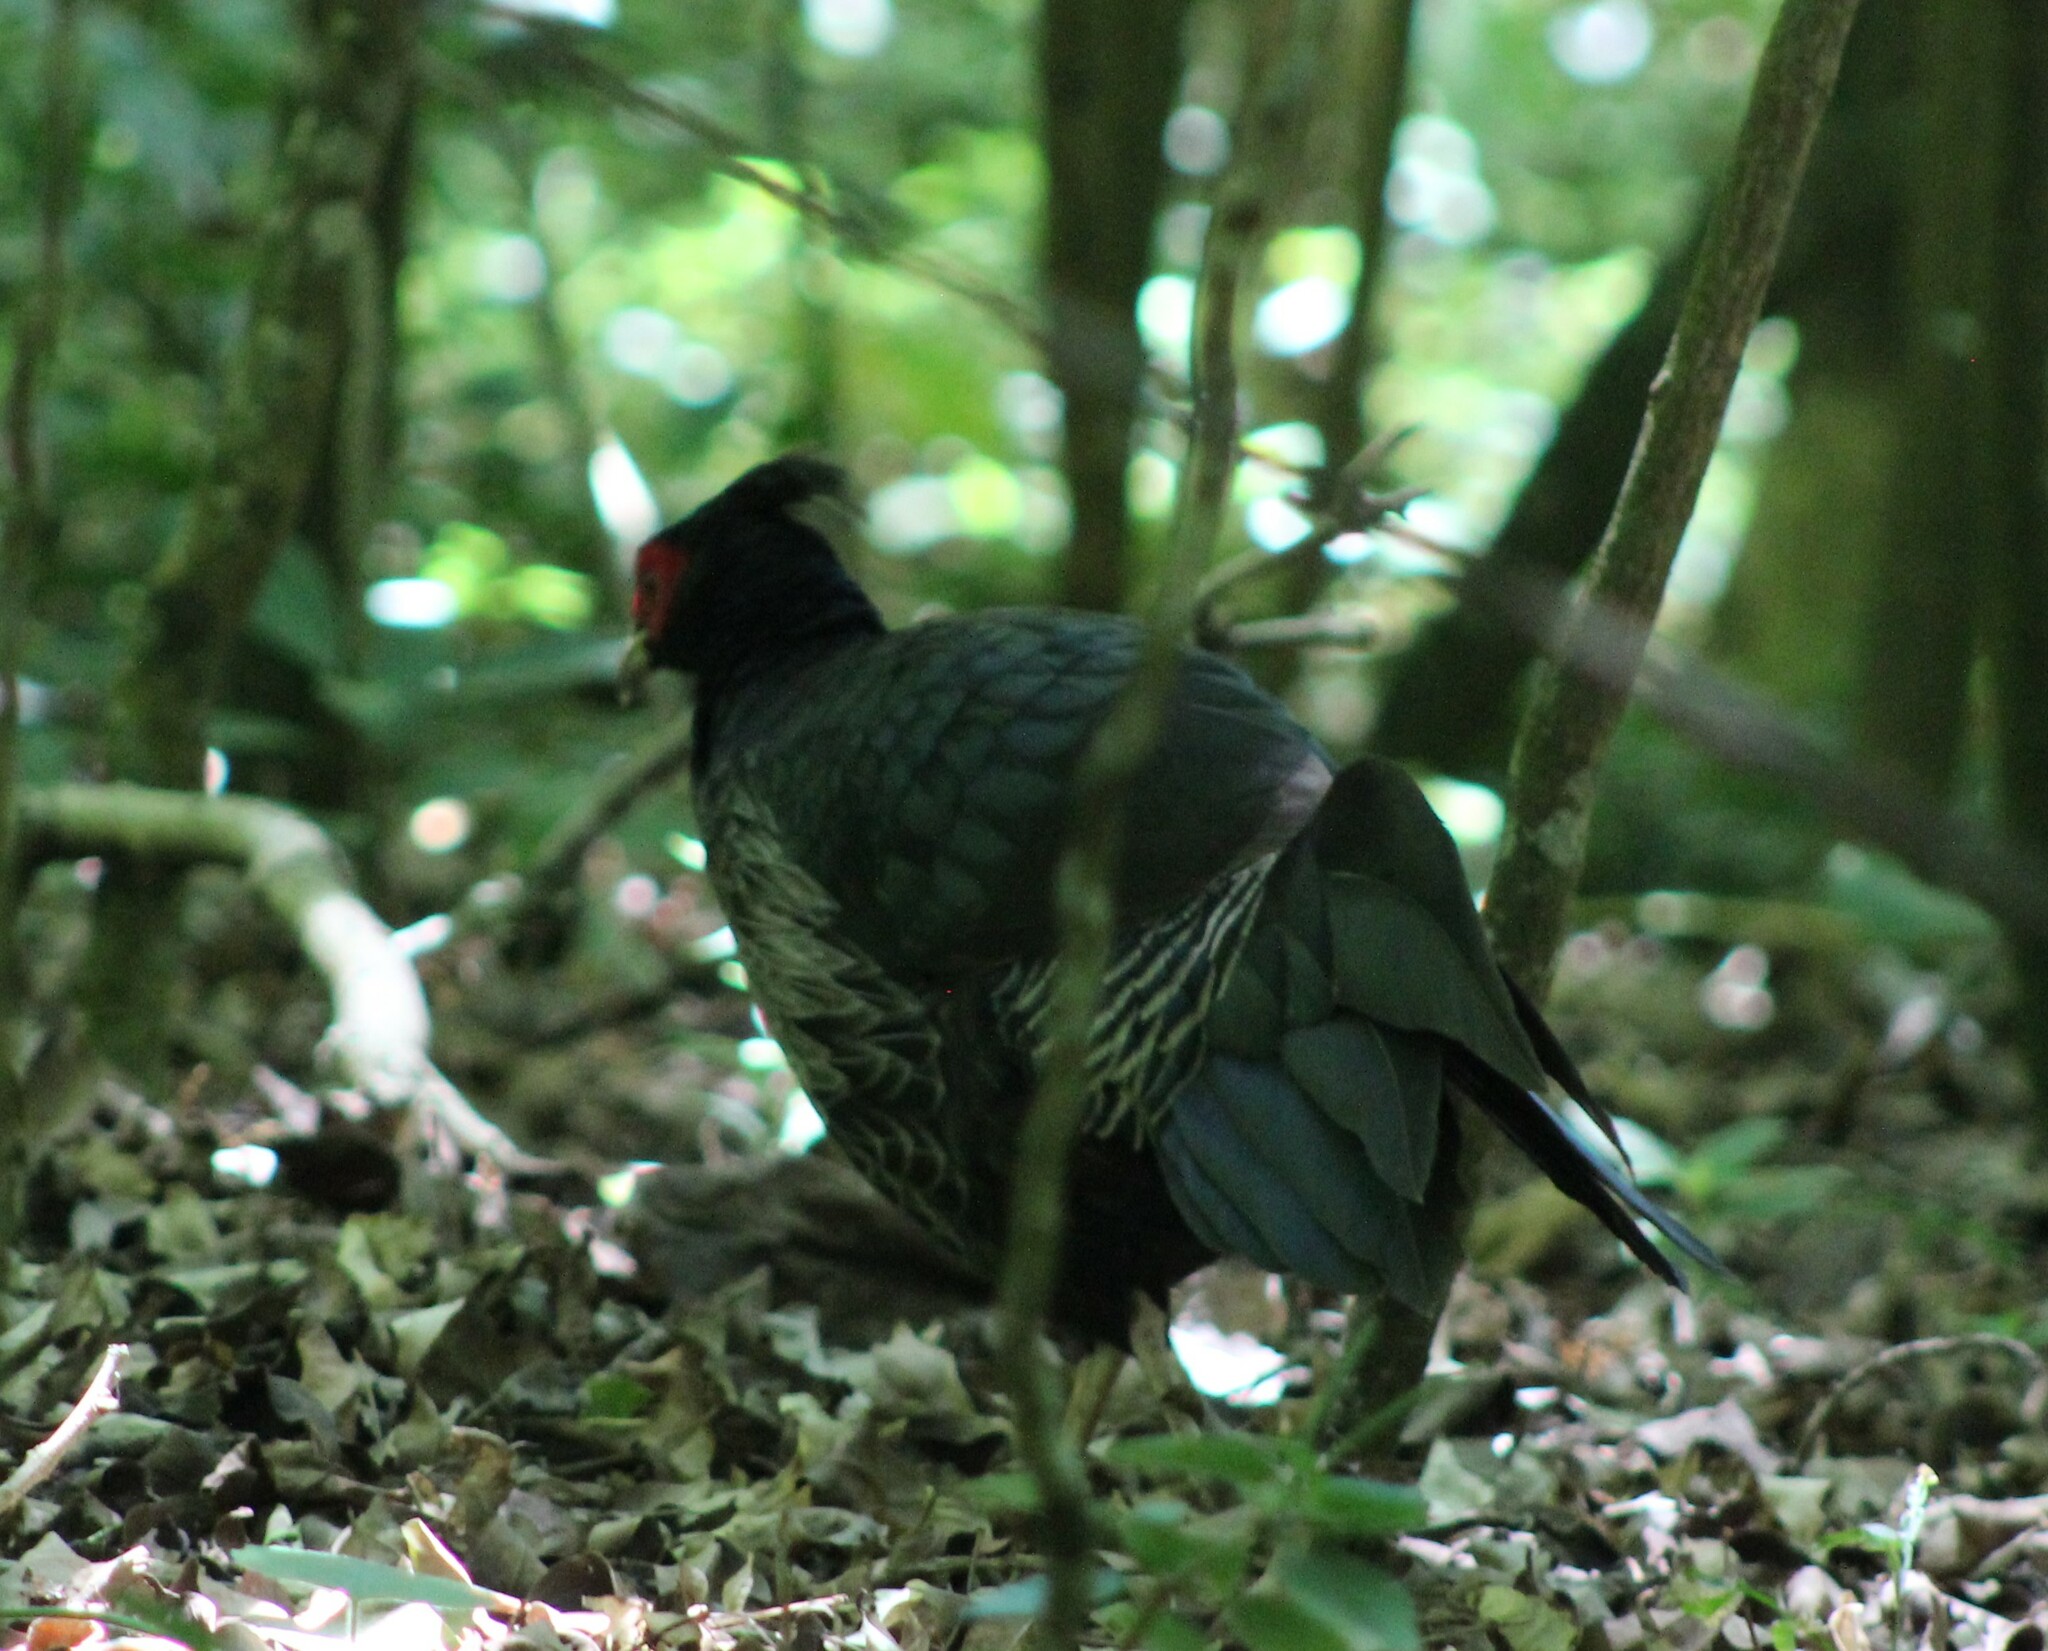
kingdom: Animalia
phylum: Chordata
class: Aves
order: Galliformes
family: Phasianidae
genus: Lophura
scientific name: Lophura leucomelanos
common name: Kalij pheasant
